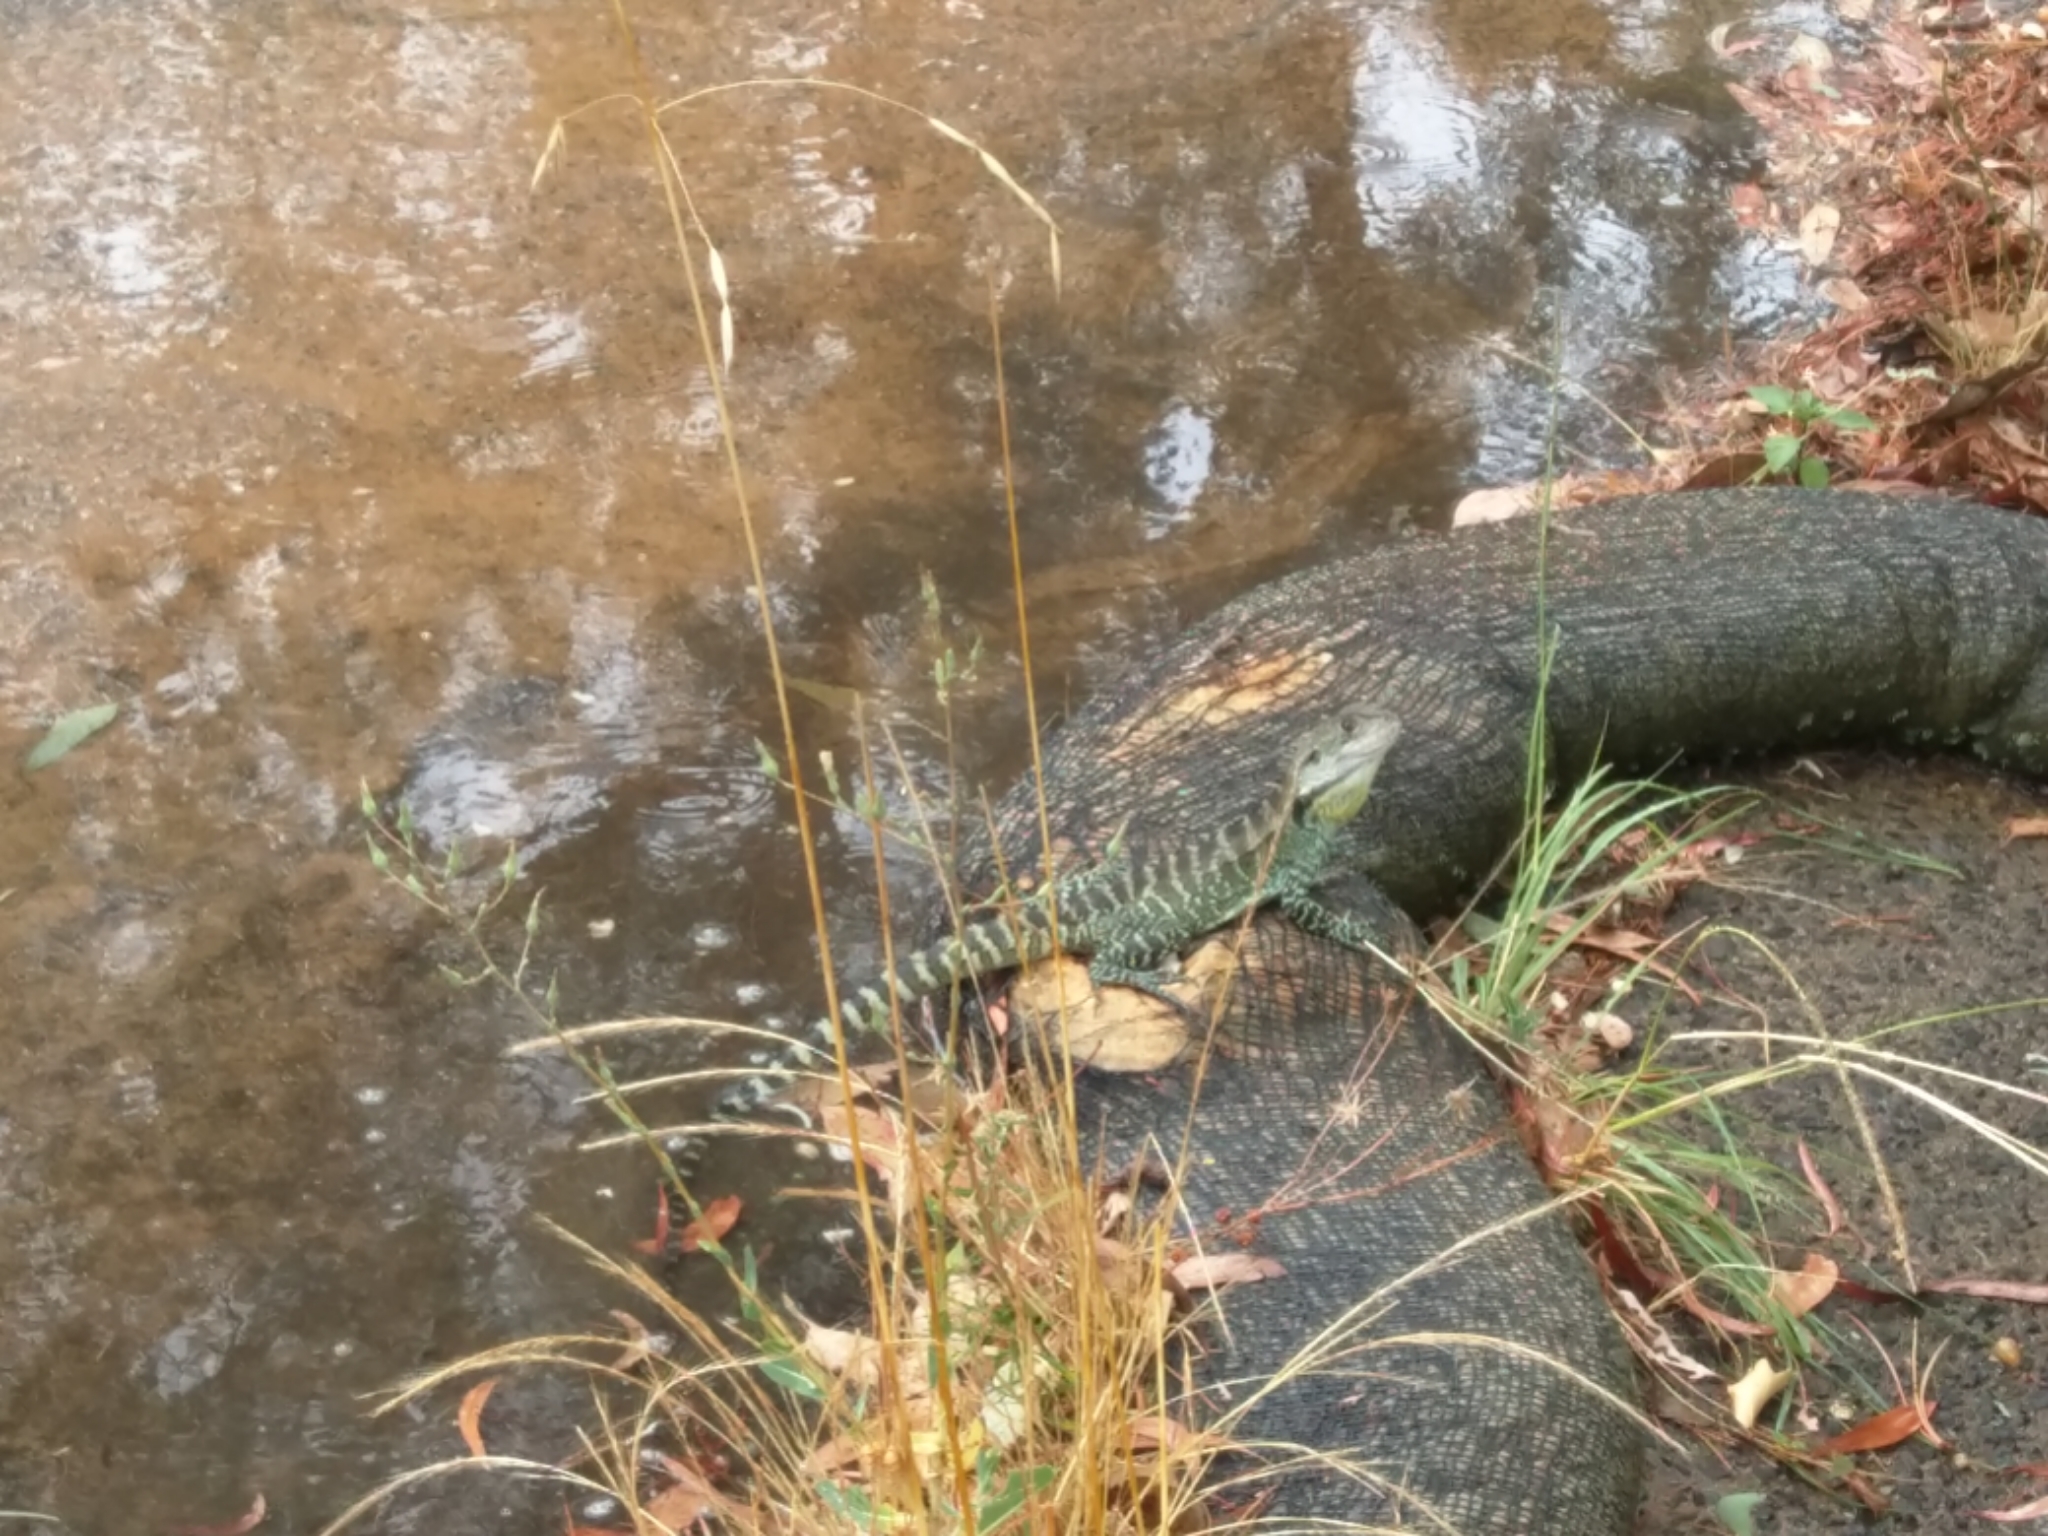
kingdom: Animalia
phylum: Chordata
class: Squamata
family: Agamidae
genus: Intellagama
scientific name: Intellagama lesueurii
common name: Eastern water dragon
